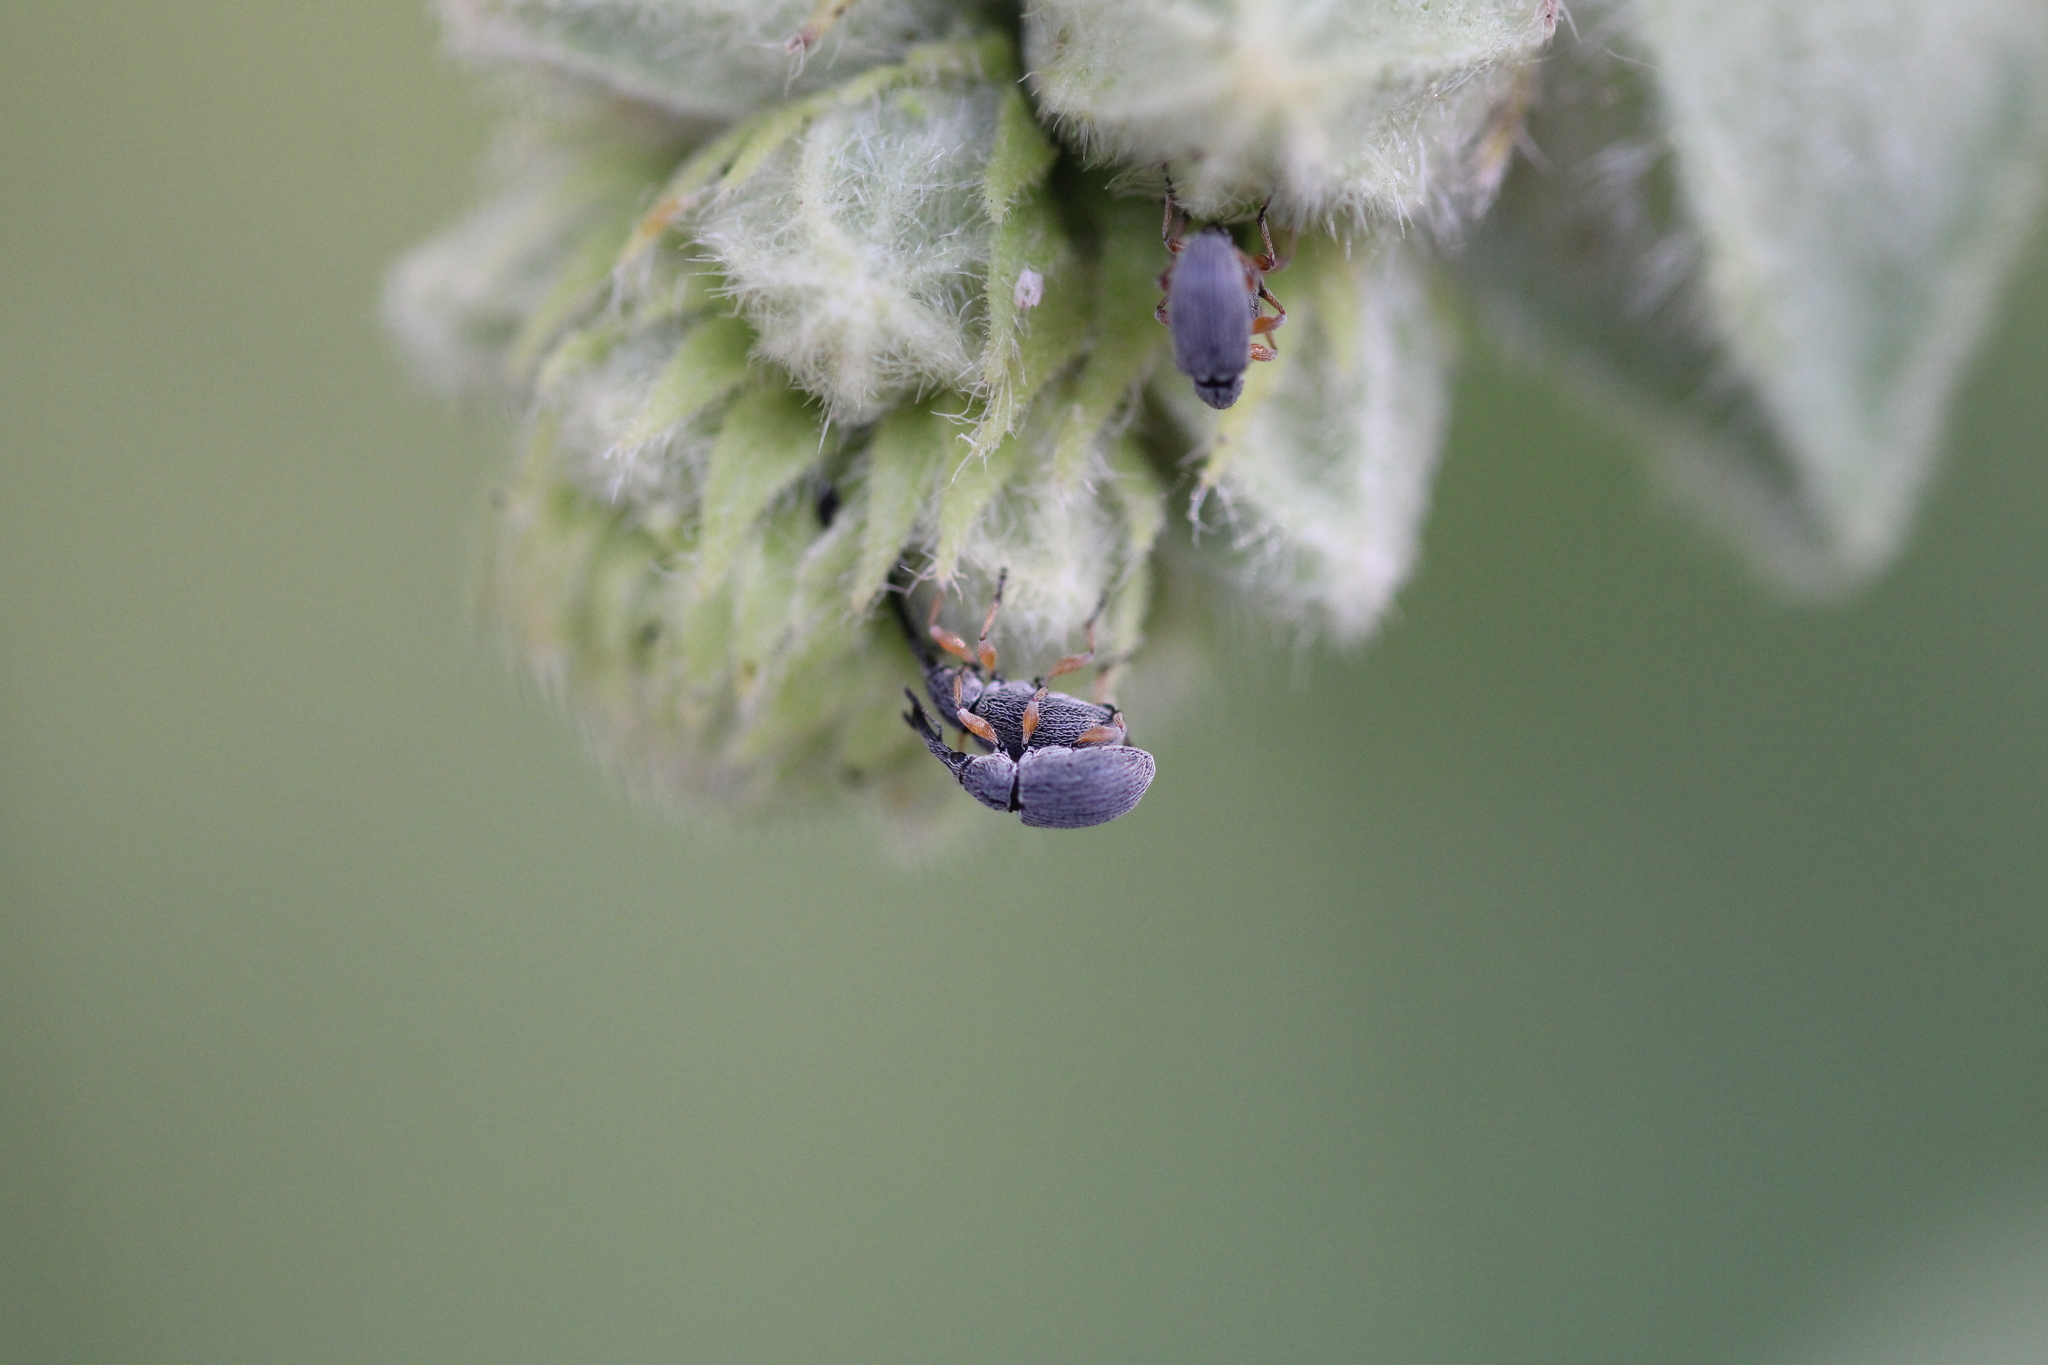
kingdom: Animalia
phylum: Arthropoda
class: Insecta
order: Coleoptera
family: Brentidae
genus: Rhopalapion
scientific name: Rhopalapion longirostre
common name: Hollyhock weevil
